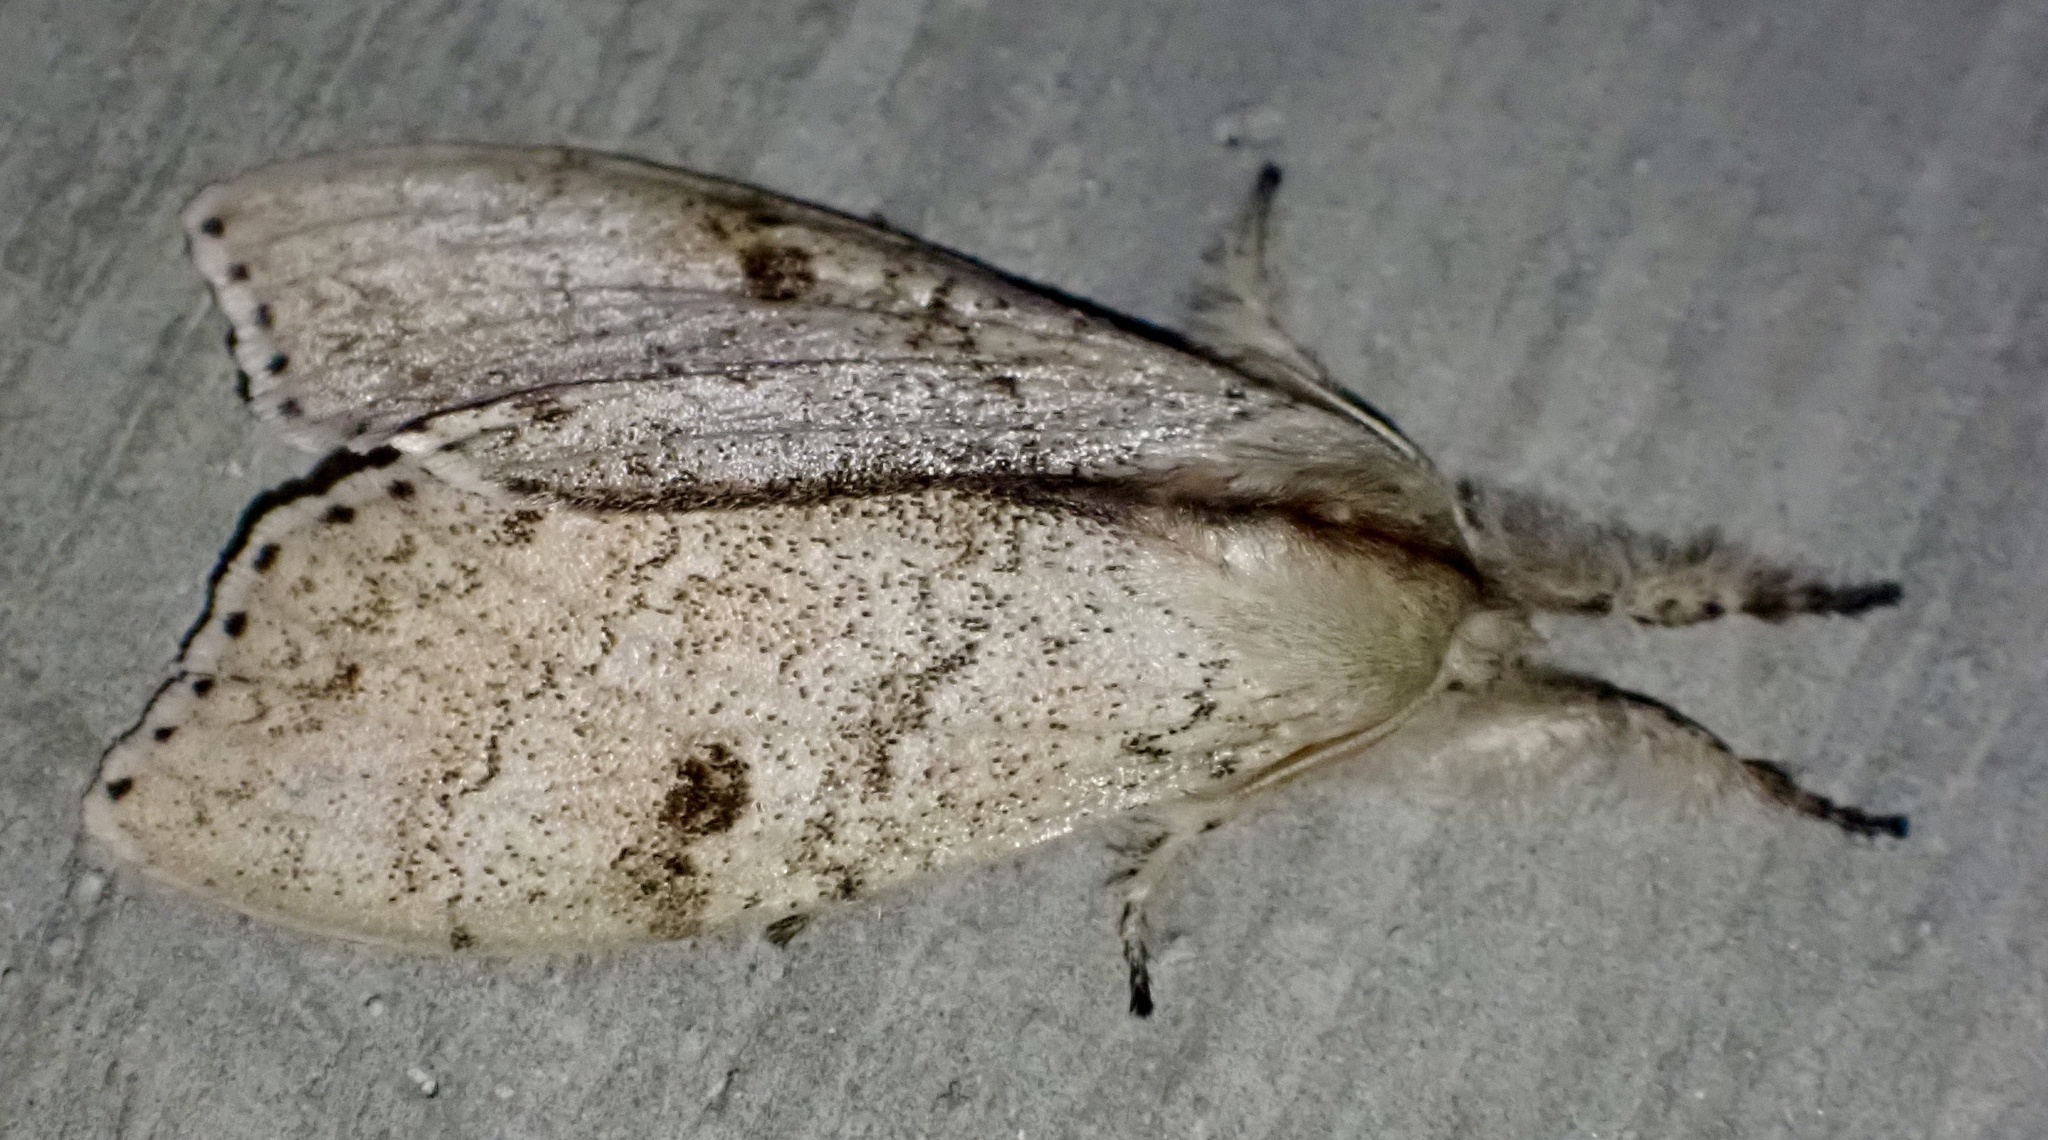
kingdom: Animalia
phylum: Arthropoda
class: Insecta
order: Lepidoptera
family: Erebidae
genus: Calliteara
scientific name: Calliteara
